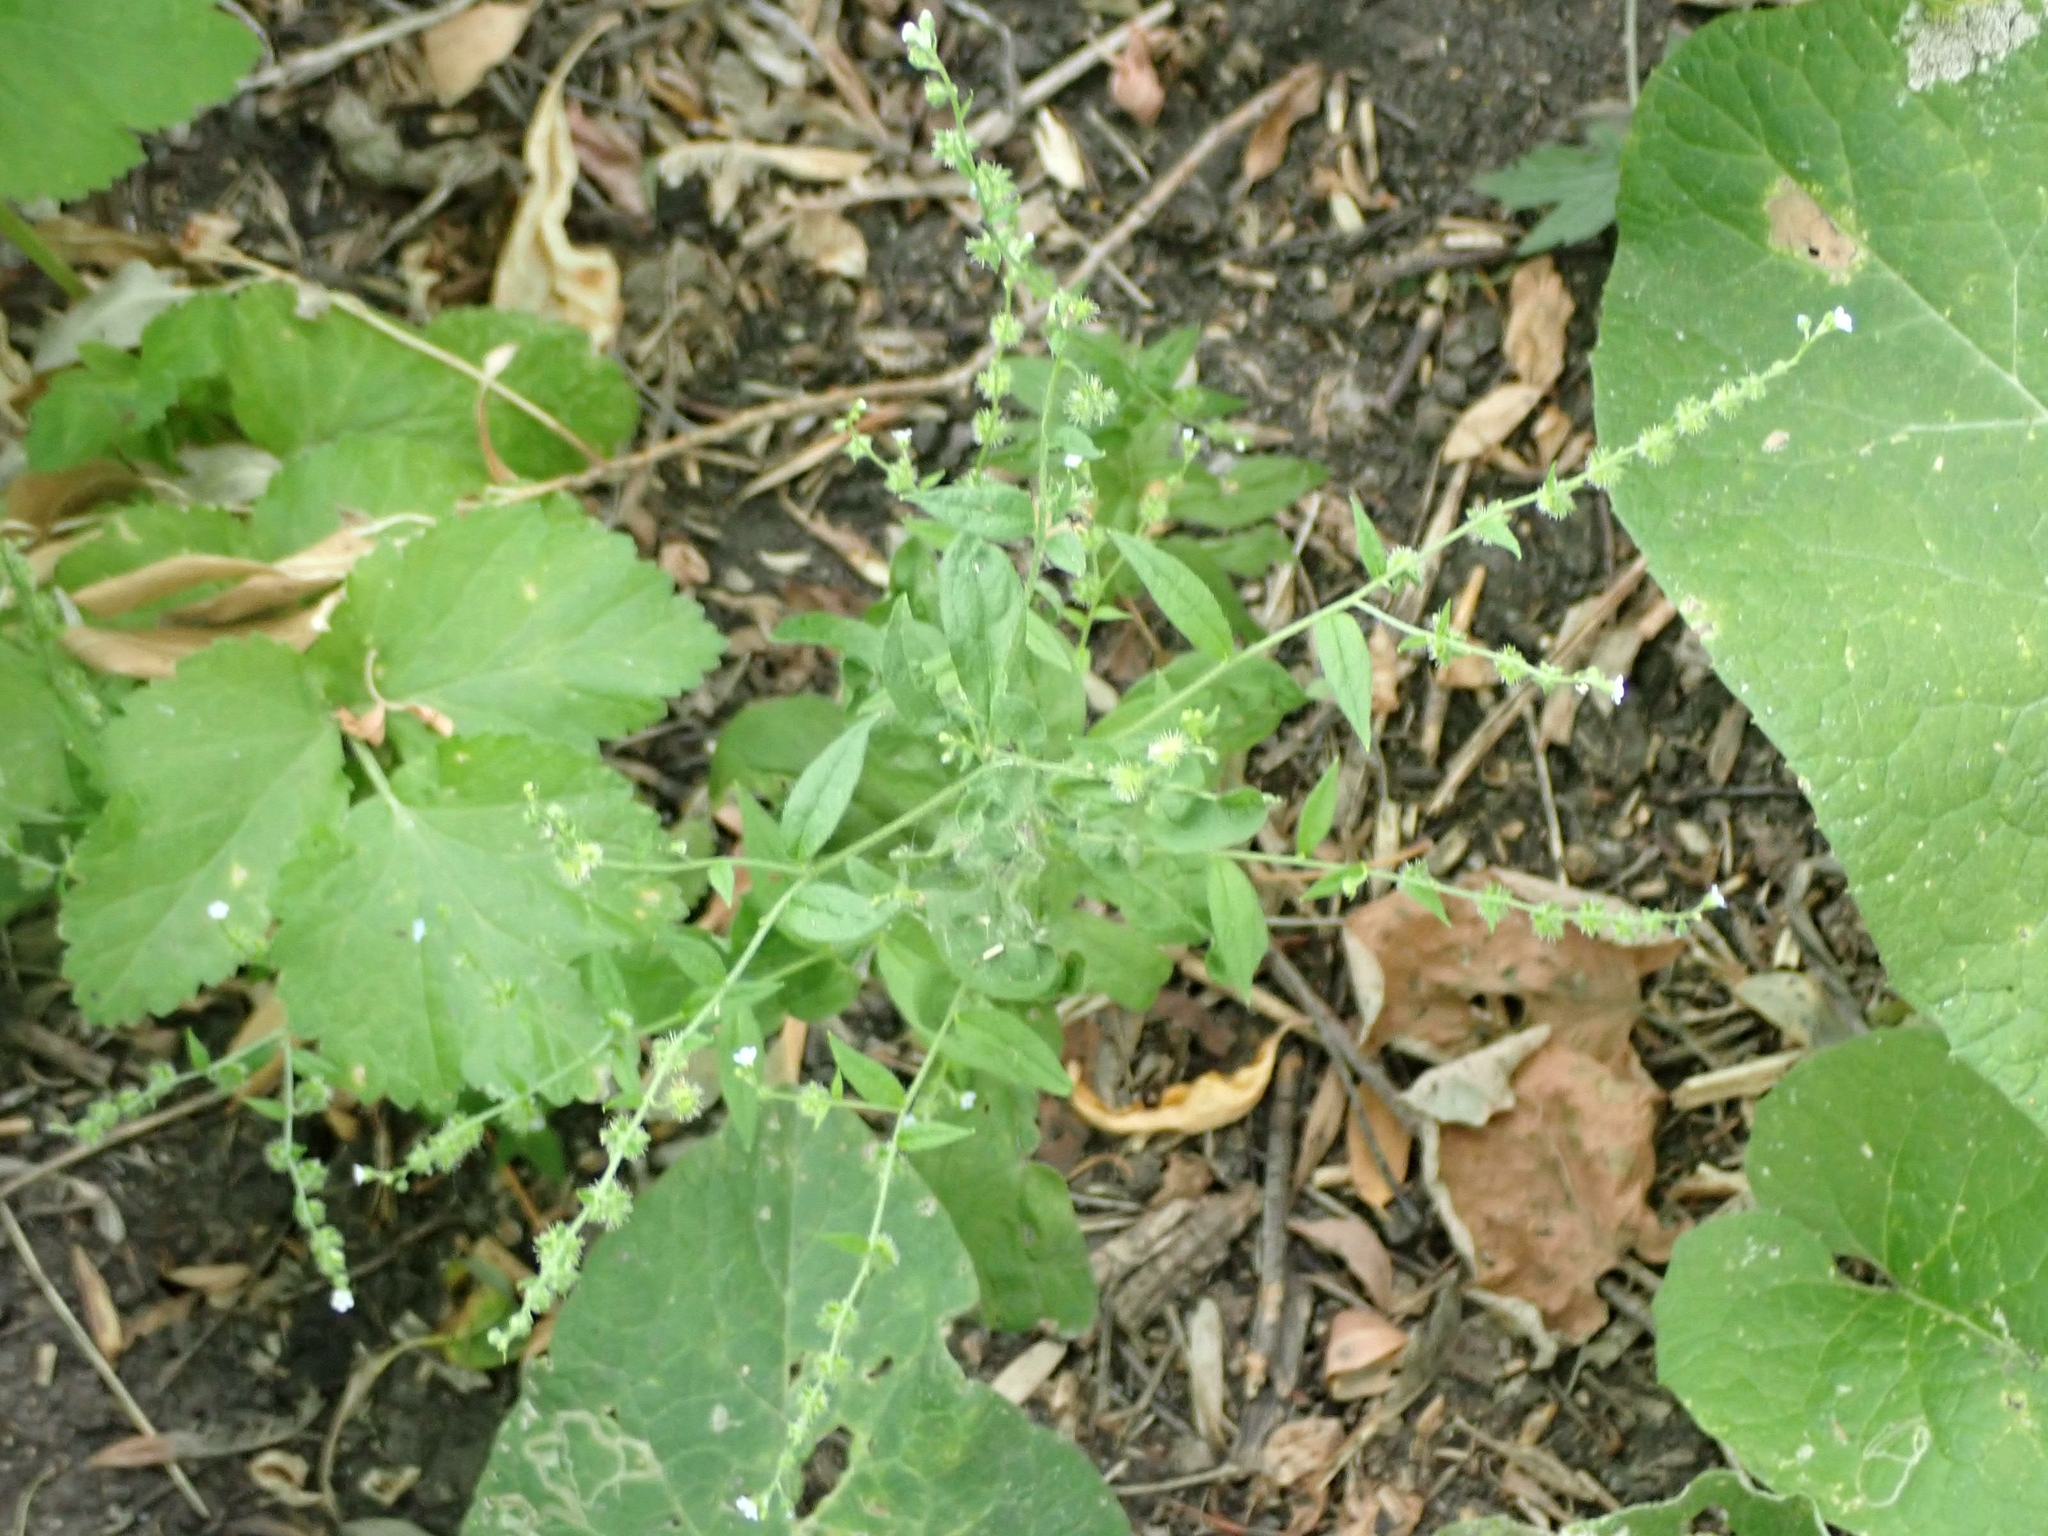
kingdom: Plantae
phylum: Tracheophyta
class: Magnoliopsida
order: Boraginales
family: Boraginaceae
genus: Hackelia
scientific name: Hackelia deflexa
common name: Nodding stickseed
